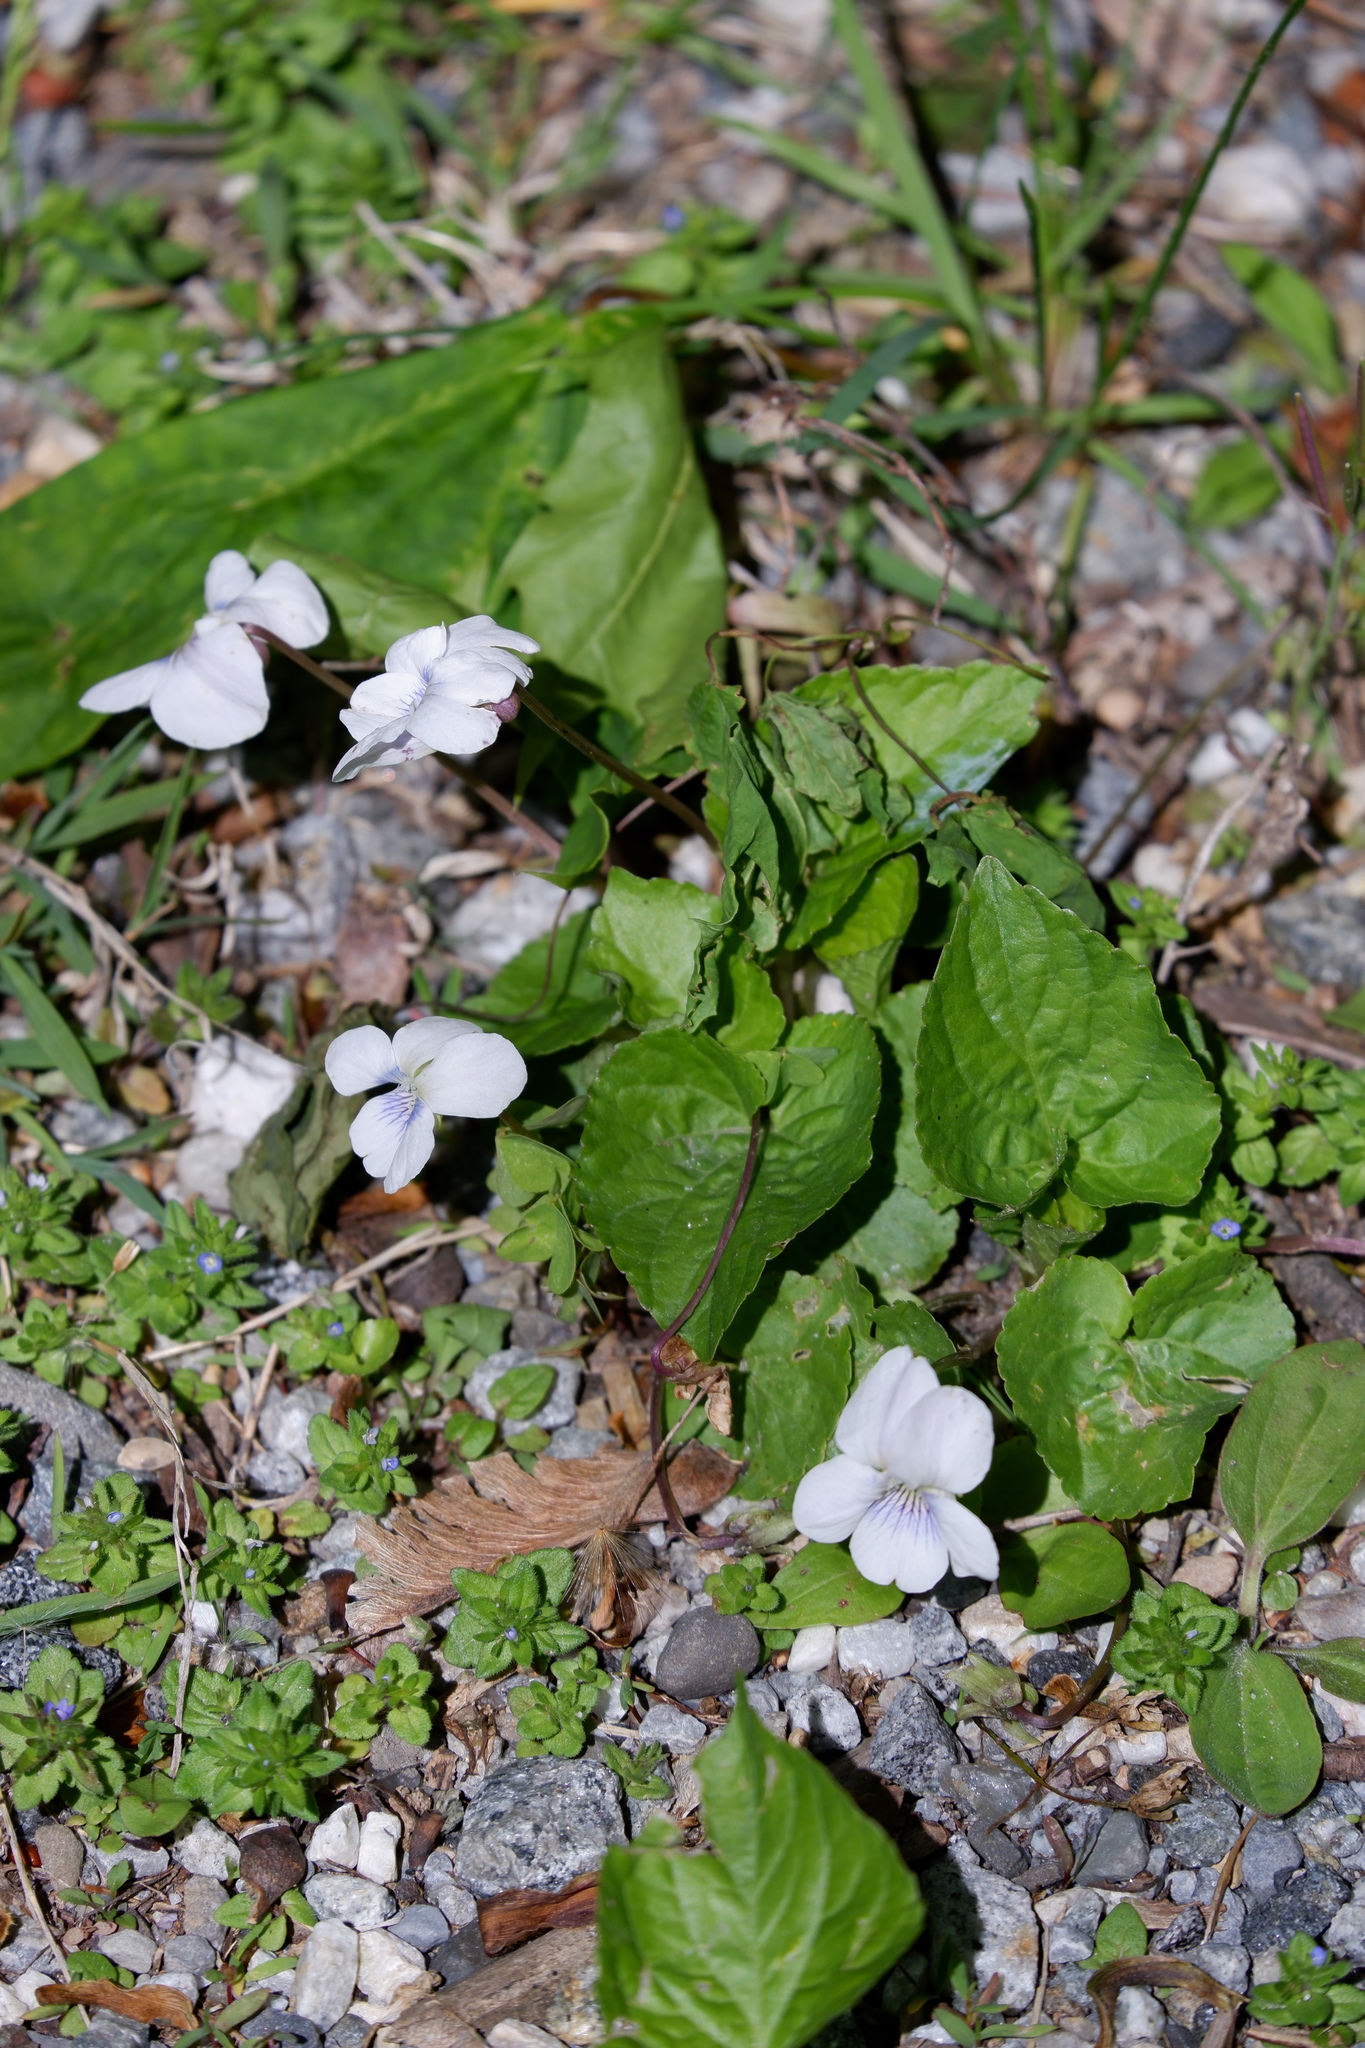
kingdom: Plantae
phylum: Tracheophyta
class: Magnoliopsida
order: Malpighiales
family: Violaceae
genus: Viola
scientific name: Viola sororia
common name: Dooryard violet
